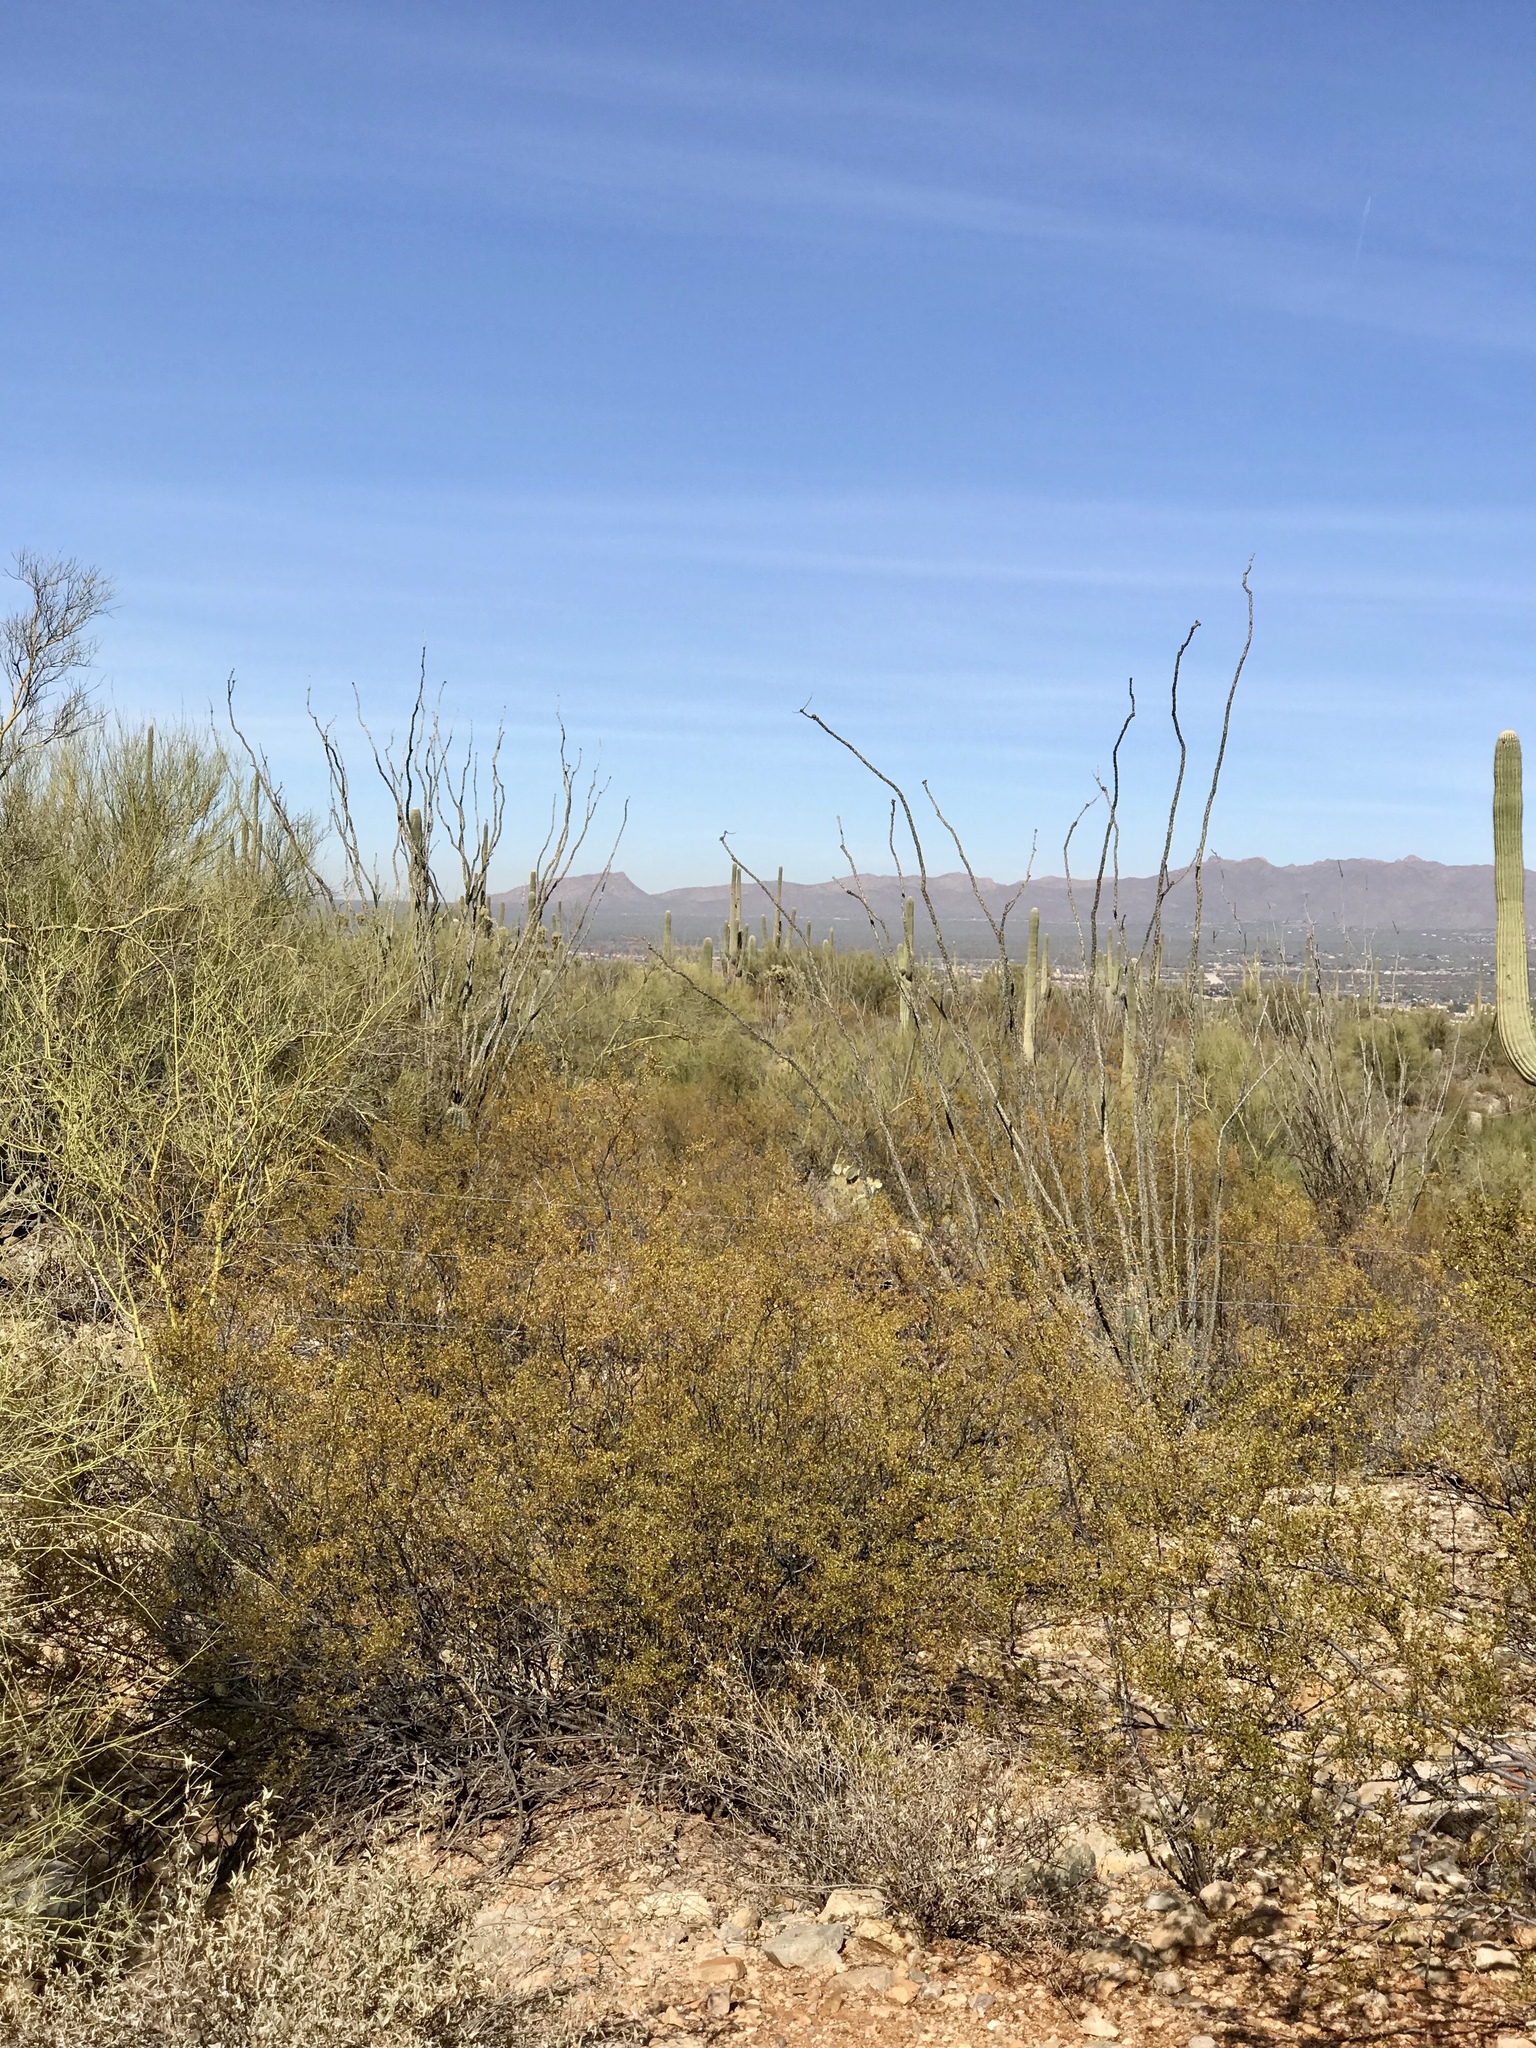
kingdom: Plantae
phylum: Tracheophyta
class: Magnoliopsida
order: Zygophyllales
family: Zygophyllaceae
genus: Larrea
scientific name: Larrea tridentata
